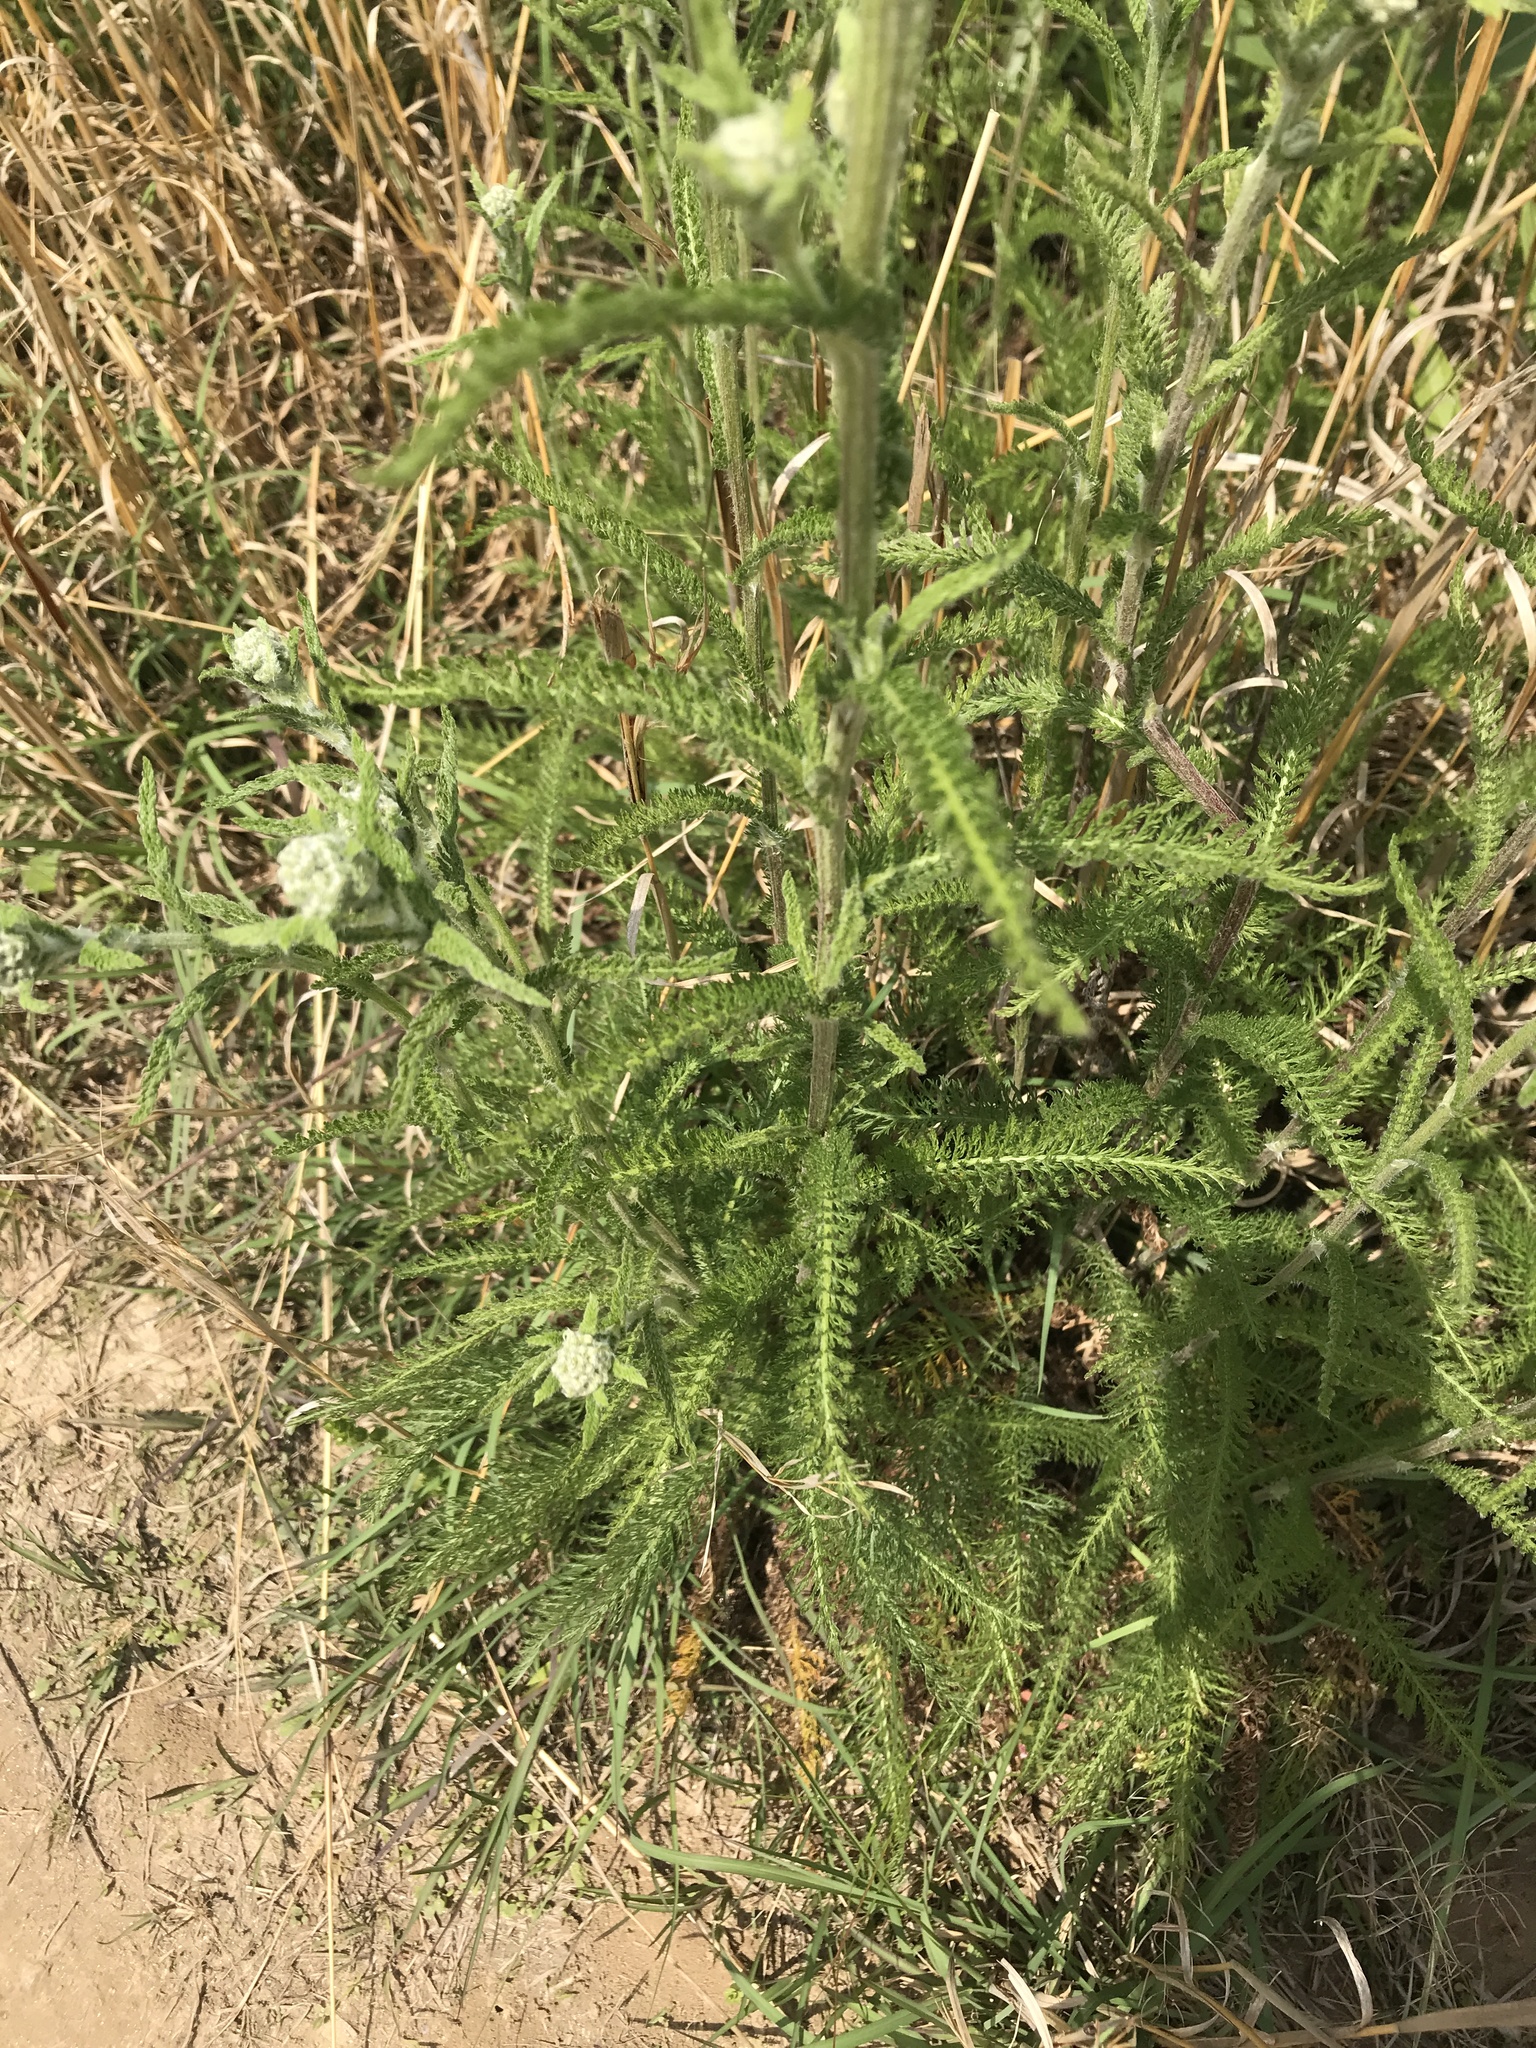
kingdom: Plantae
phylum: Tracheophyta
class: Magnoliopsida
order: Asterales
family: Asteraceae
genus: Achillea
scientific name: Achillea millefolium
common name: Yarrow
